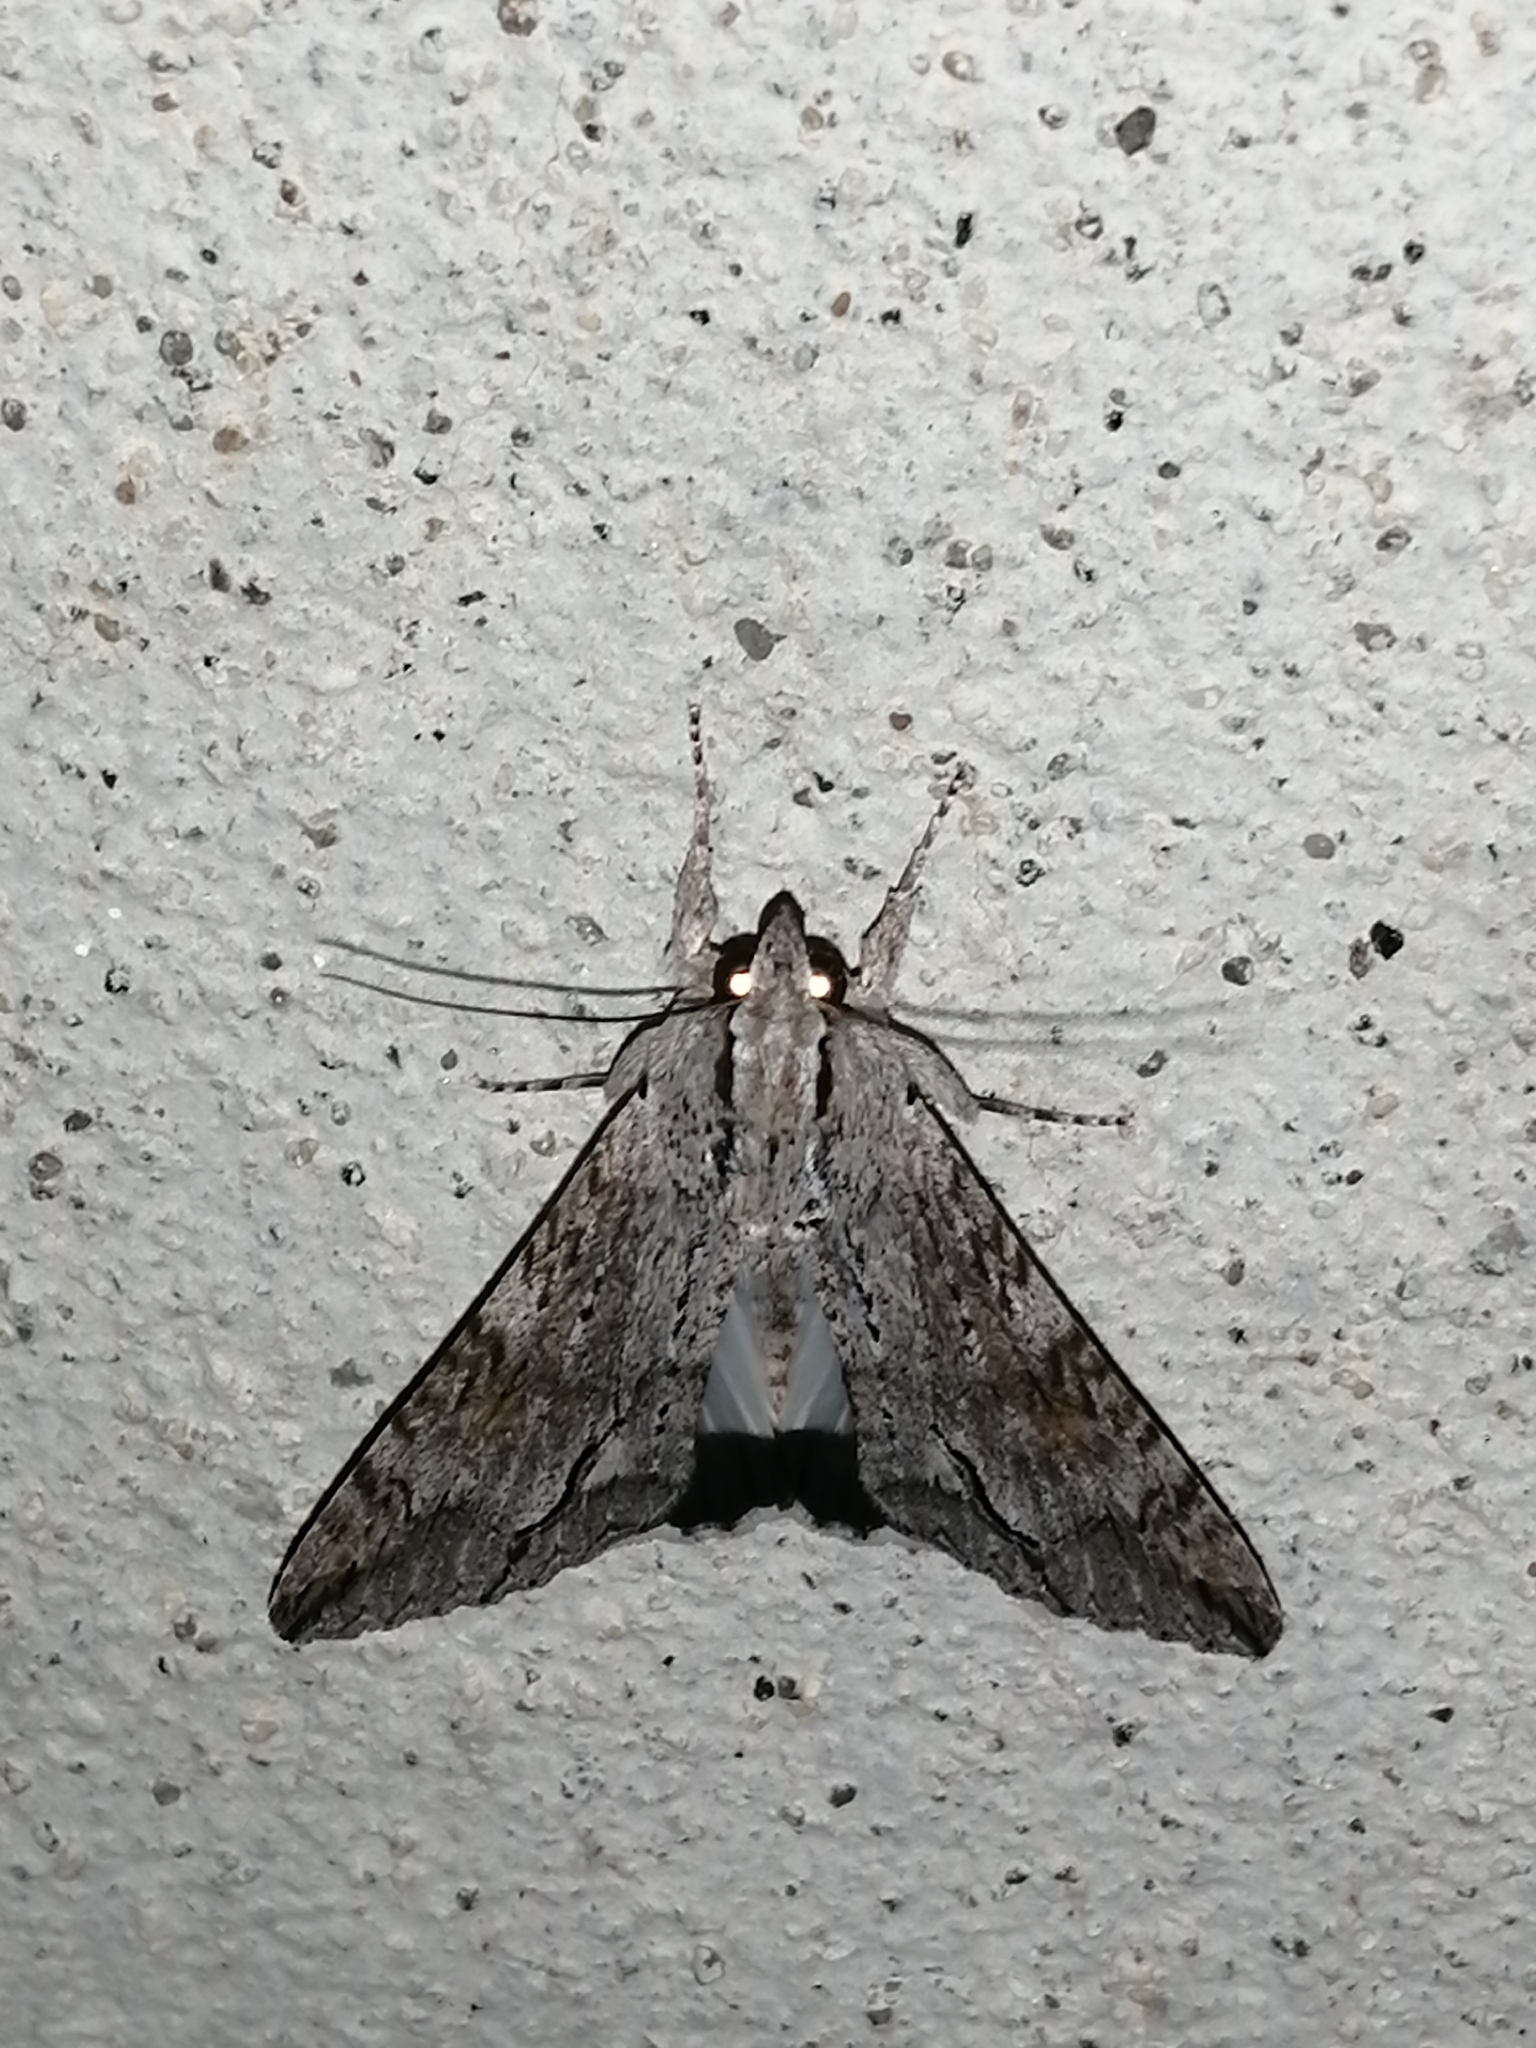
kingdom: Animalia
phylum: Arthropoda
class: Insecta
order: Lepidoptera
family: Erebidae
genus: Melipotis
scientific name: Melipotis acontioides
